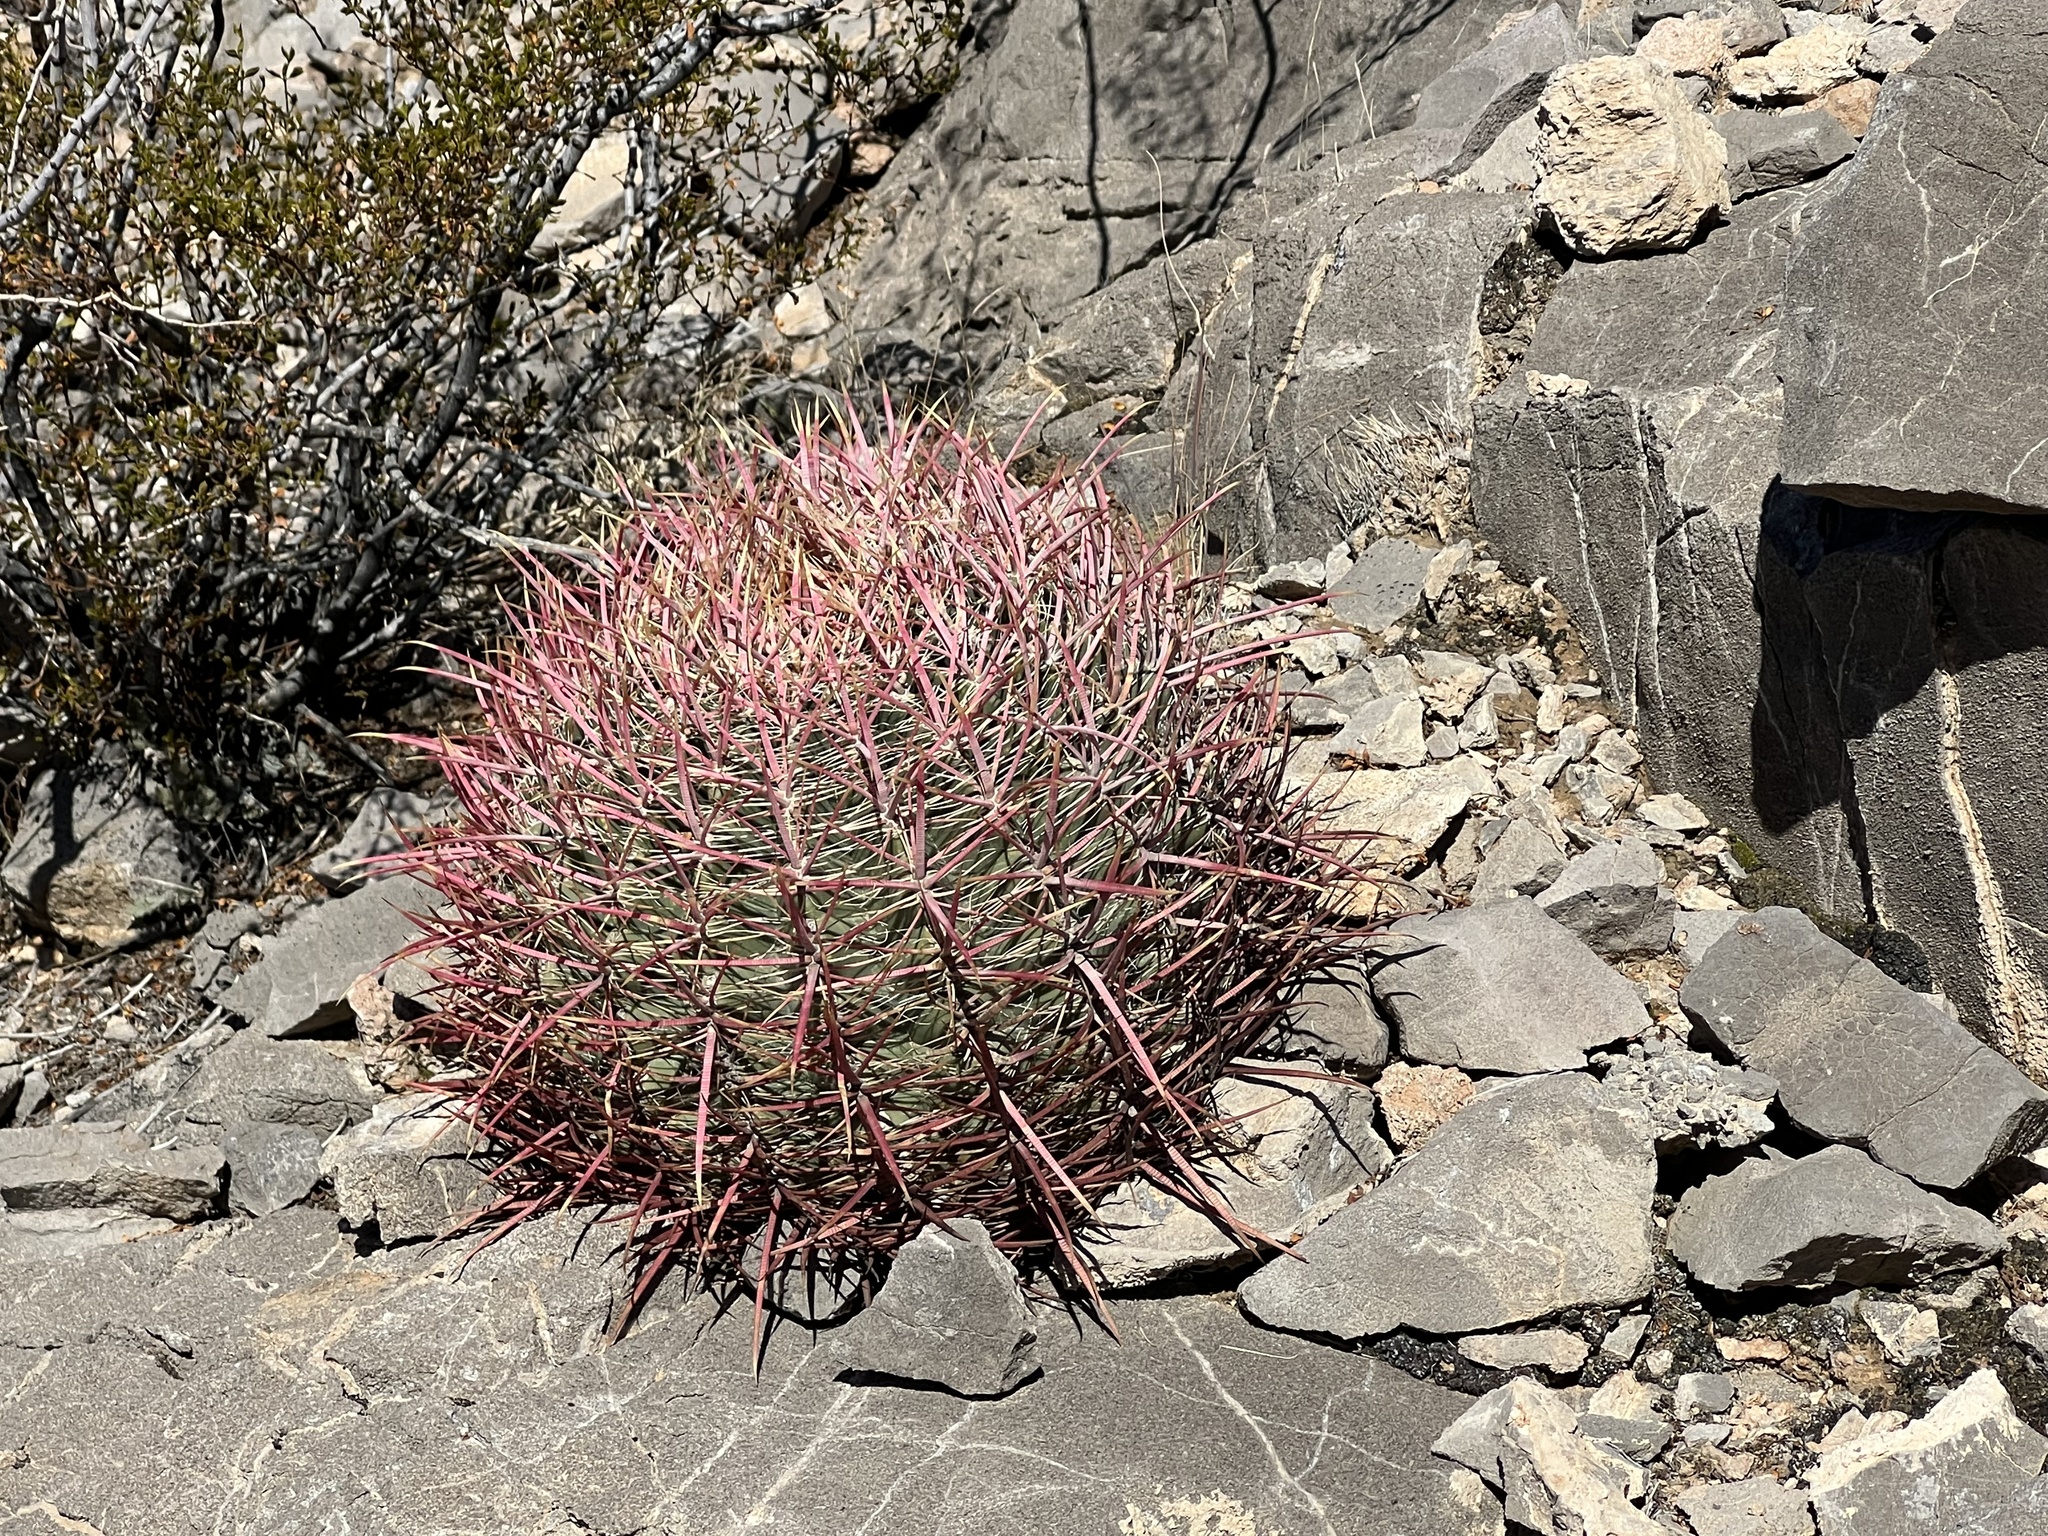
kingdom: Plantae
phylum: Tracheophyta
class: Magnoliopsida
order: Caryophyllales
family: Cactaceae
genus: Ferocactus
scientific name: Ferocactus cylindraceus
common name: California barrel cactus
